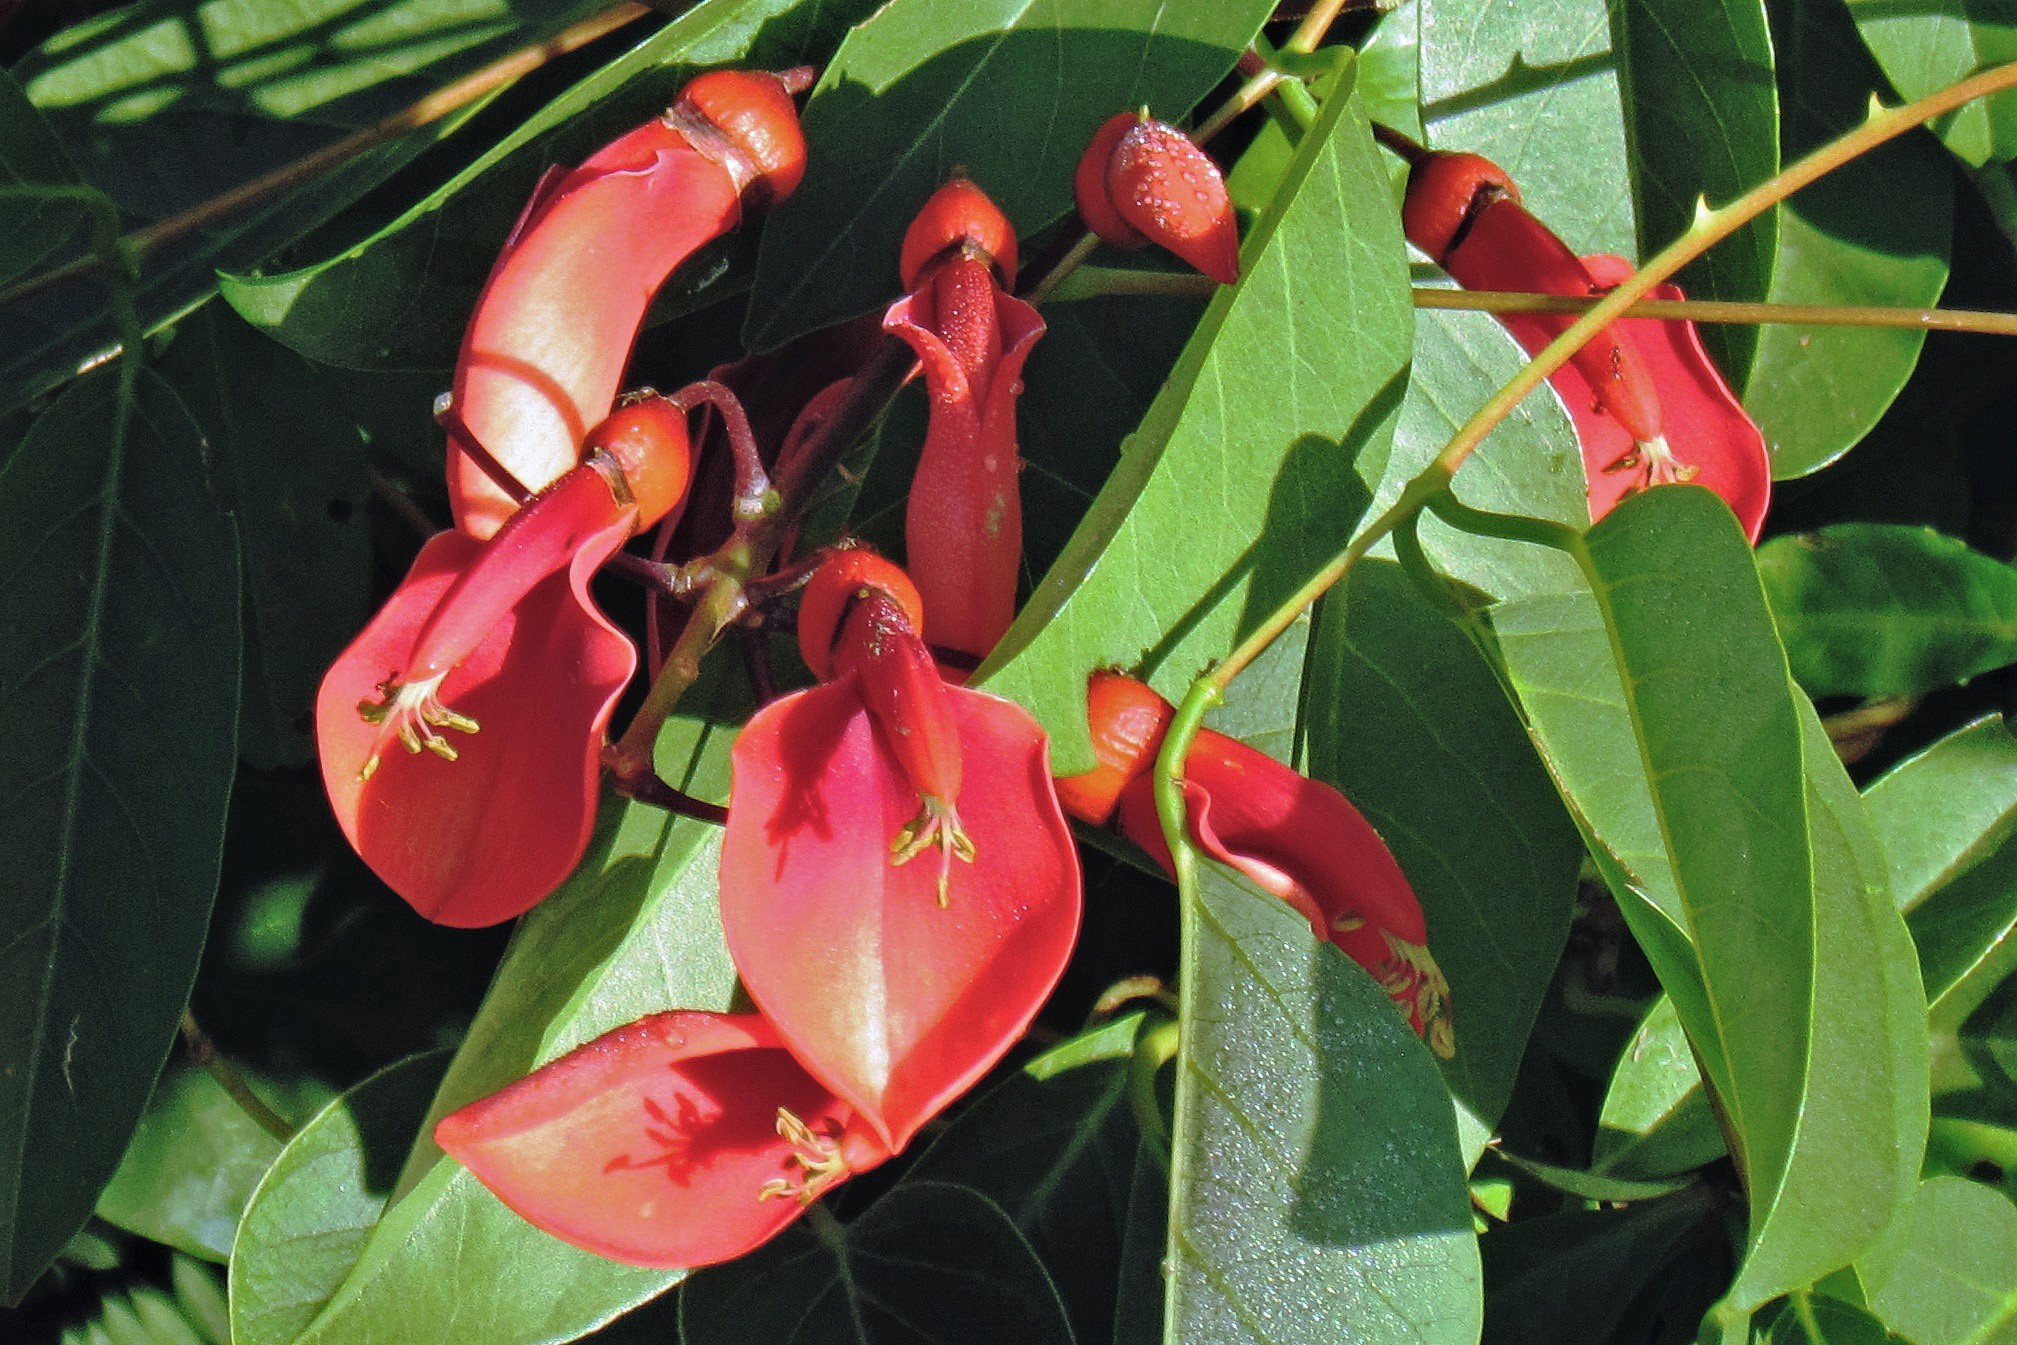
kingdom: Plantae
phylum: Tracheophyta
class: Magnoliopsida
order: Fabales
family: Fabaceae
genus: Erythrina
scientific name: Erythrina crista-galli
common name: Cockspur coral tree
